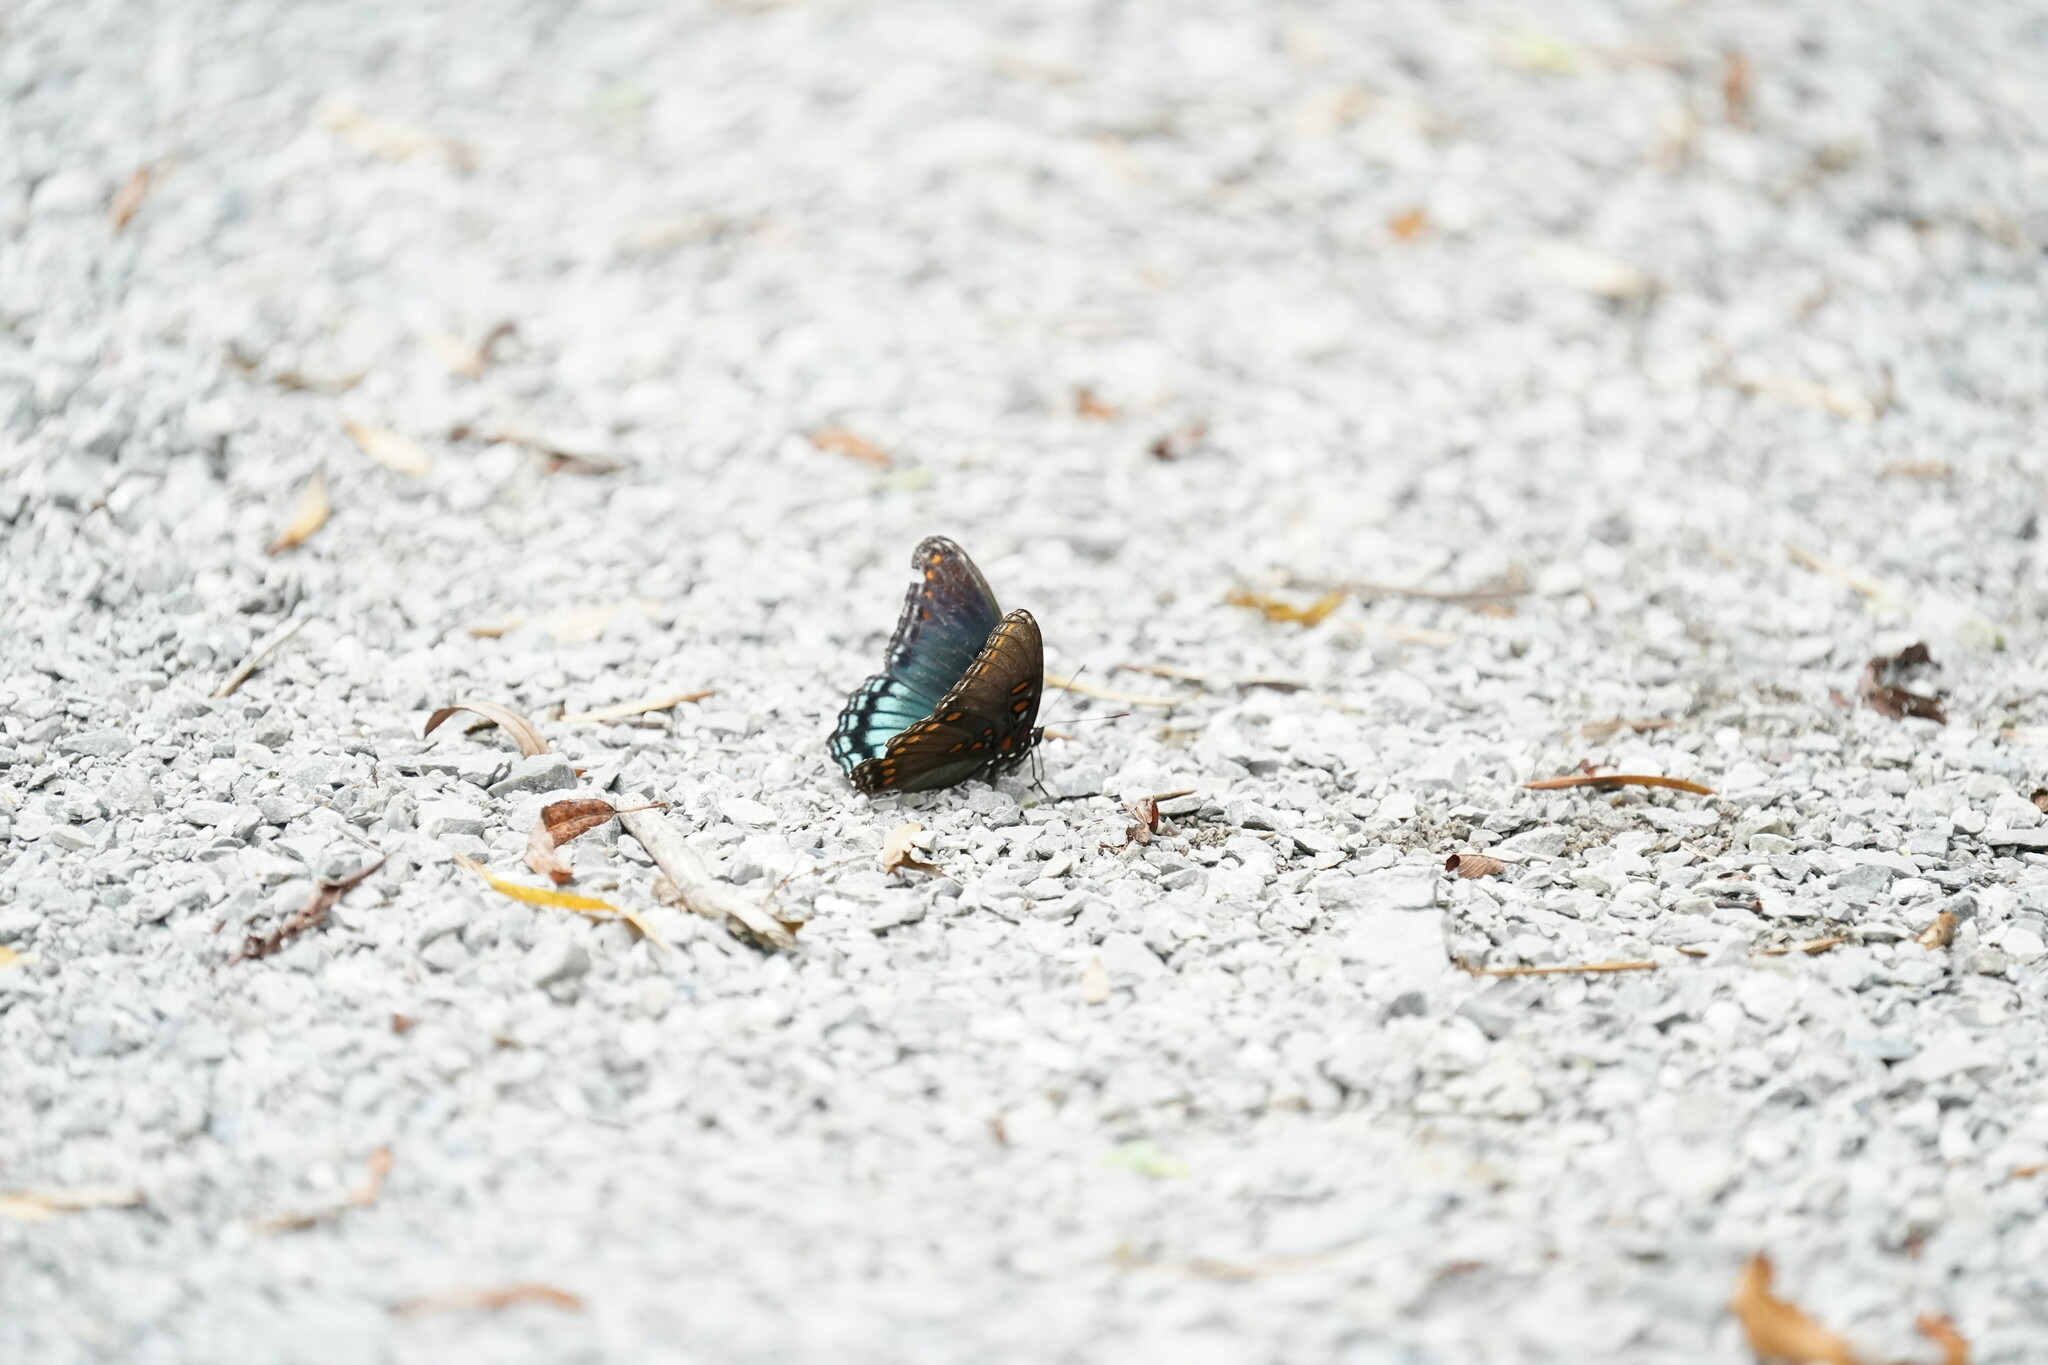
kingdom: Animalia
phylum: Arthropoda
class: Insecta
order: Lepidoptera
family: Nymphalidae
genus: Limenitis
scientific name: Limenitis astyanax
